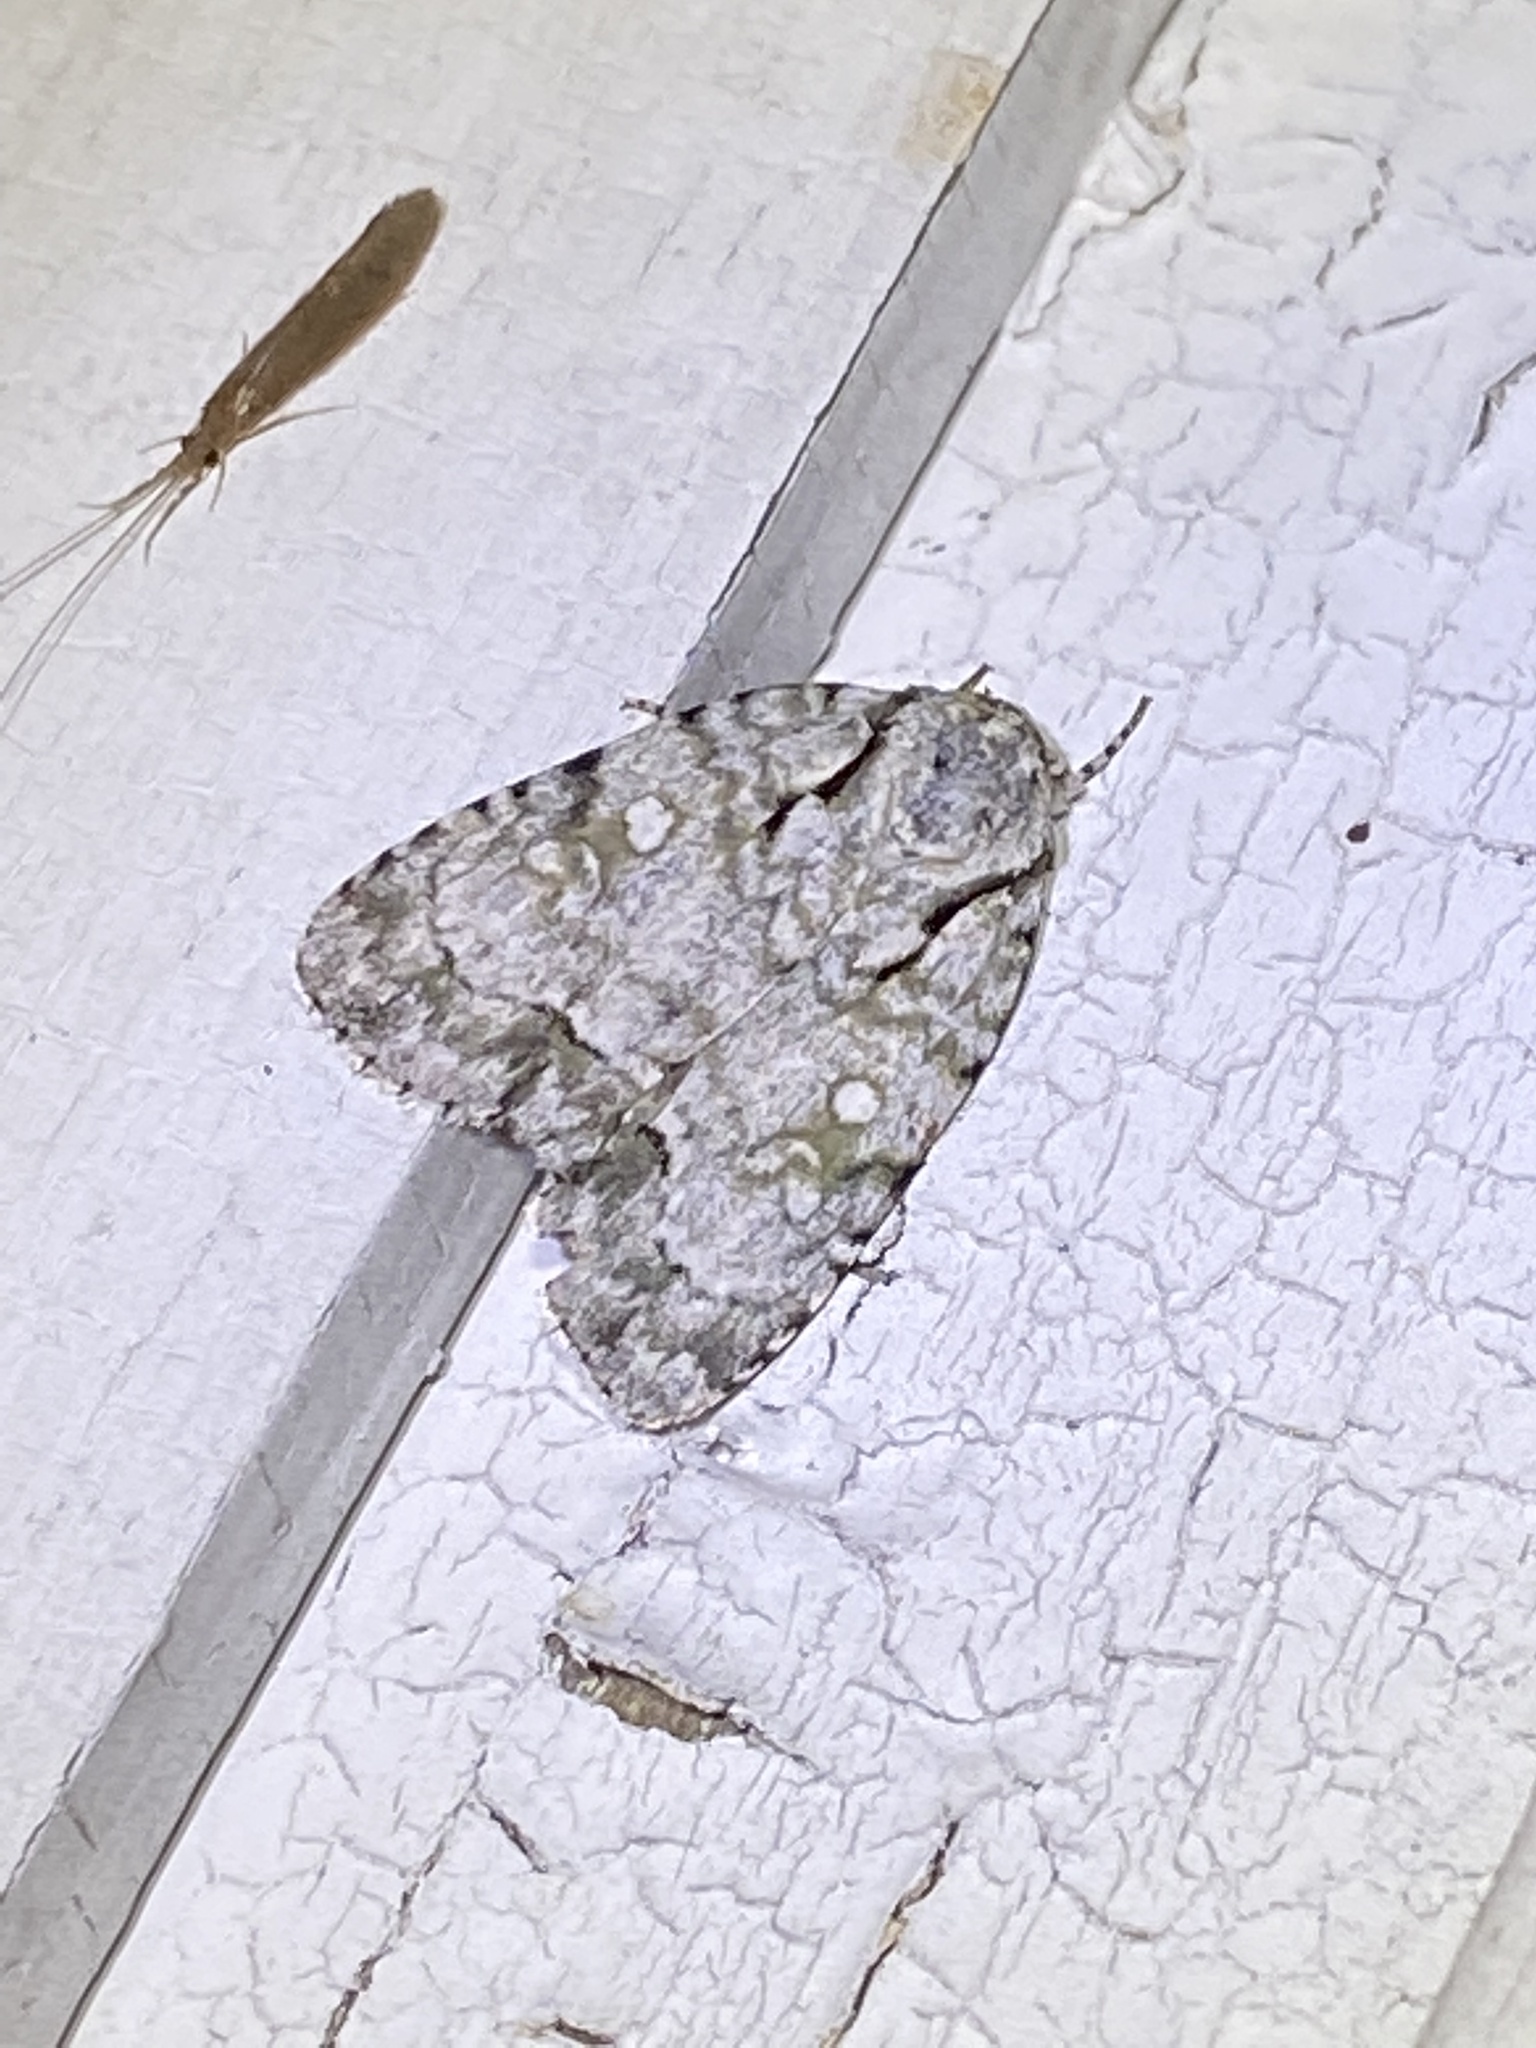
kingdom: Animalia
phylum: Arthropoda
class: Insecta
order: Lepidoptera
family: Noctuidae
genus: Acronicta
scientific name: Acronicta vinnula
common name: Delightful dagger
